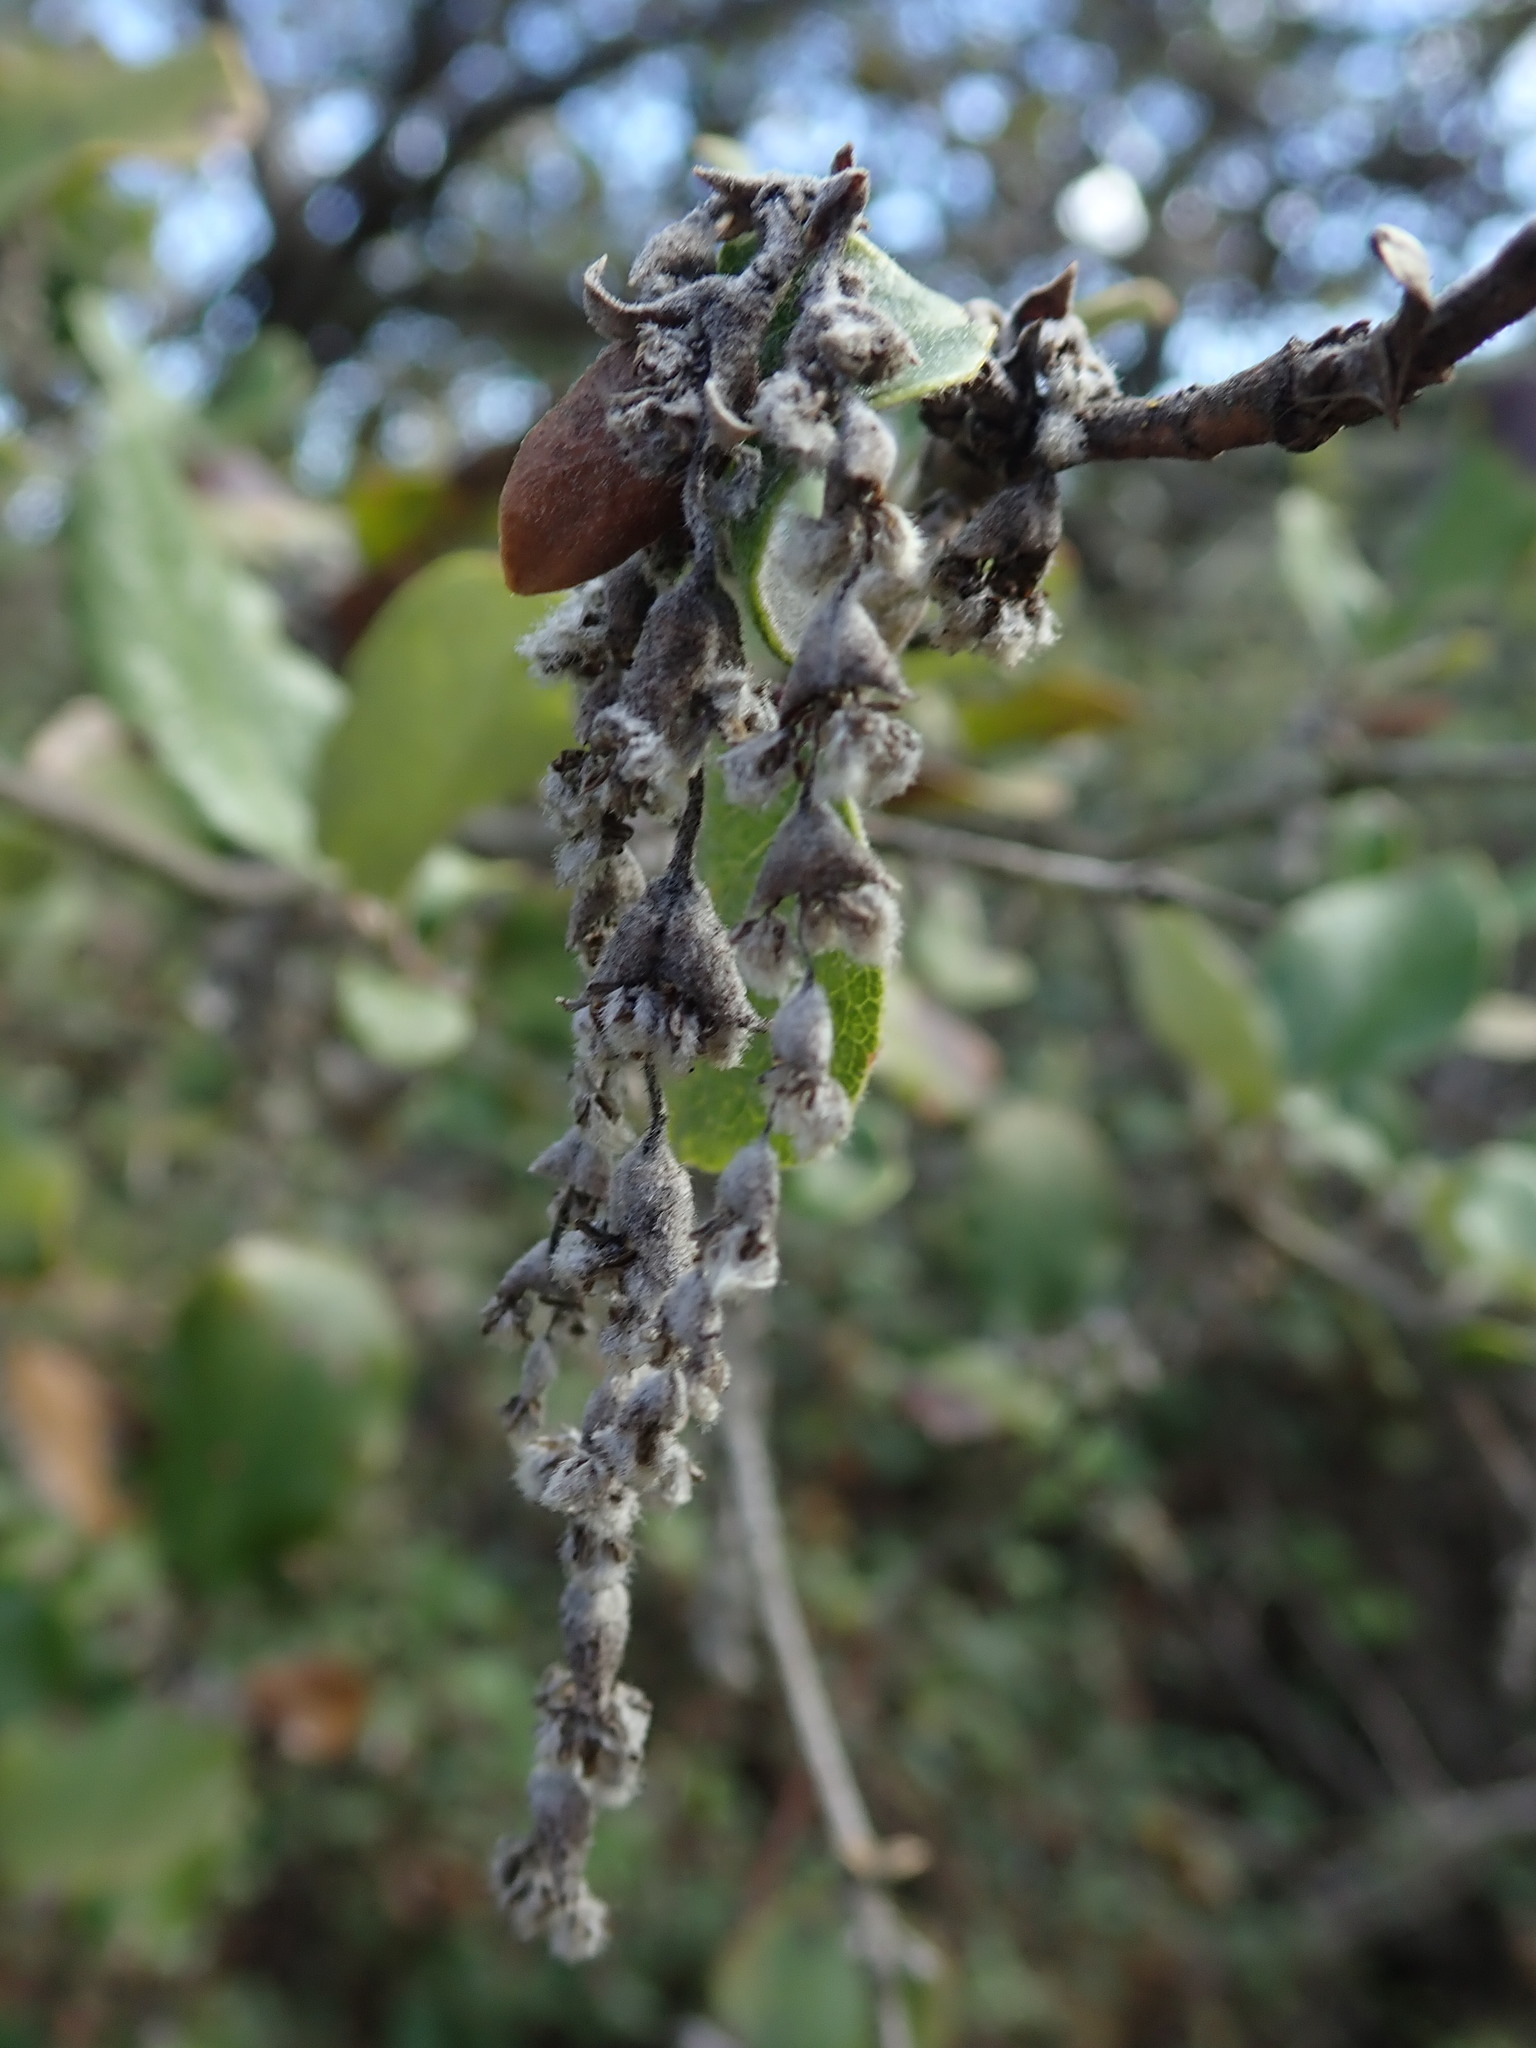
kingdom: Plantae
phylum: Tracheophyta
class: Magnoliopsida
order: Garryales
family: Garryaceae
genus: Garrya
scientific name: Garrya elliptica
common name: Silk-tassel
